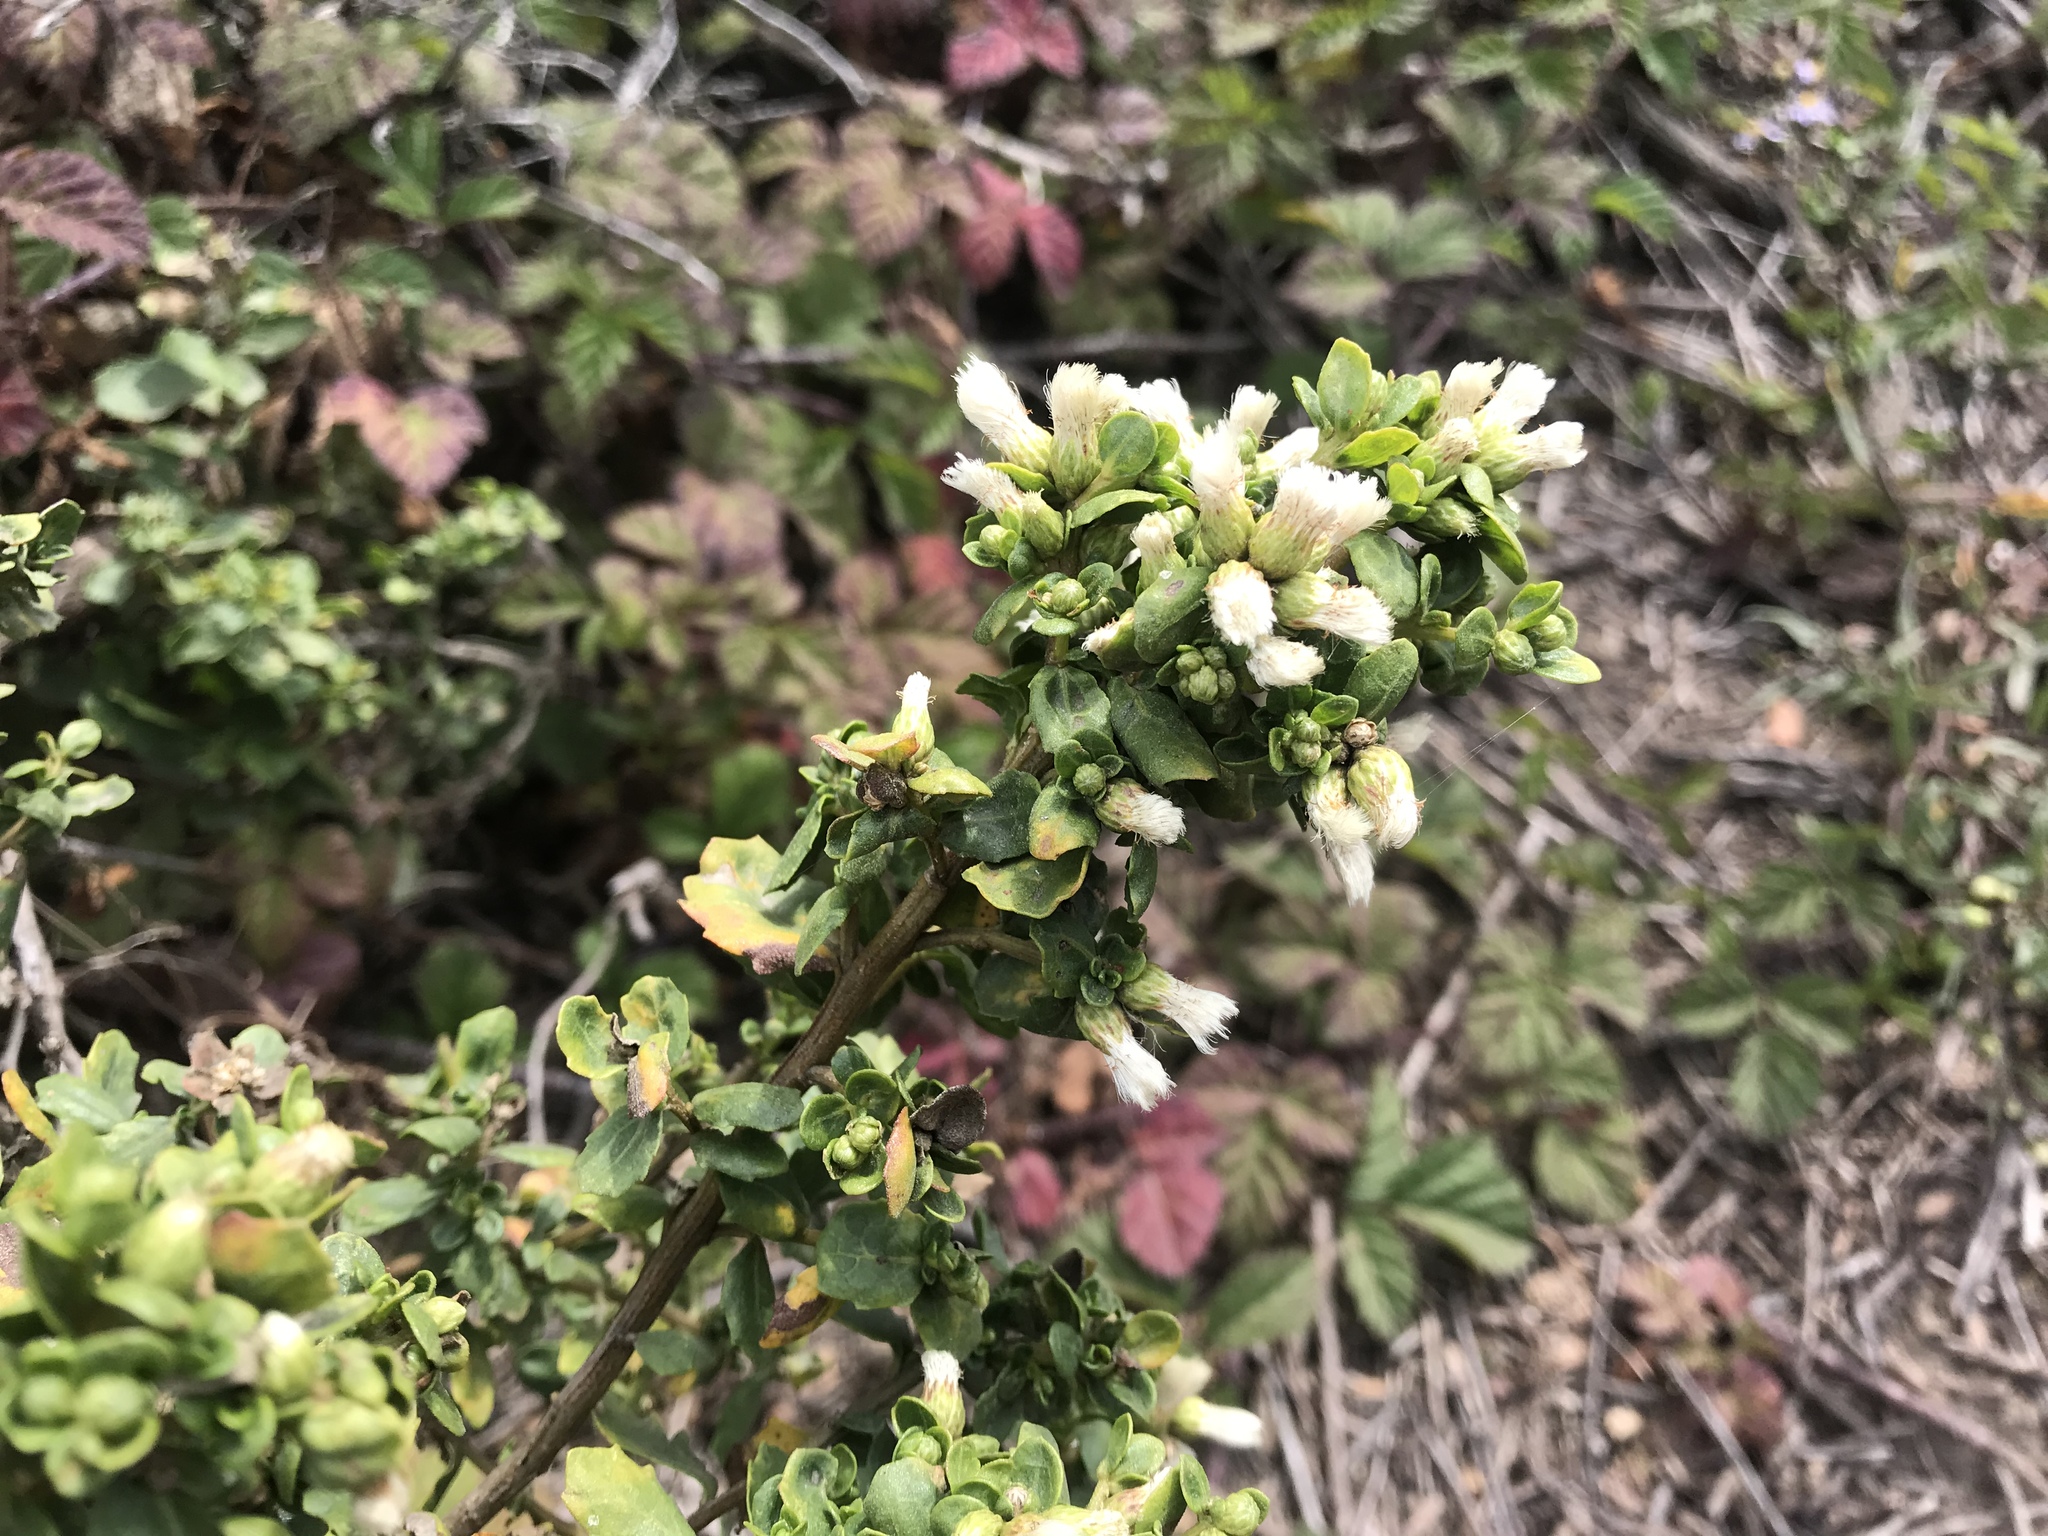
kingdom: Plantae
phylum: Tracheophyta
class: Magnoliopsida
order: Asterales
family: Asteraceae
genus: Baccharis
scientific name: Baccharis pilularis
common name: Coyotebrush
